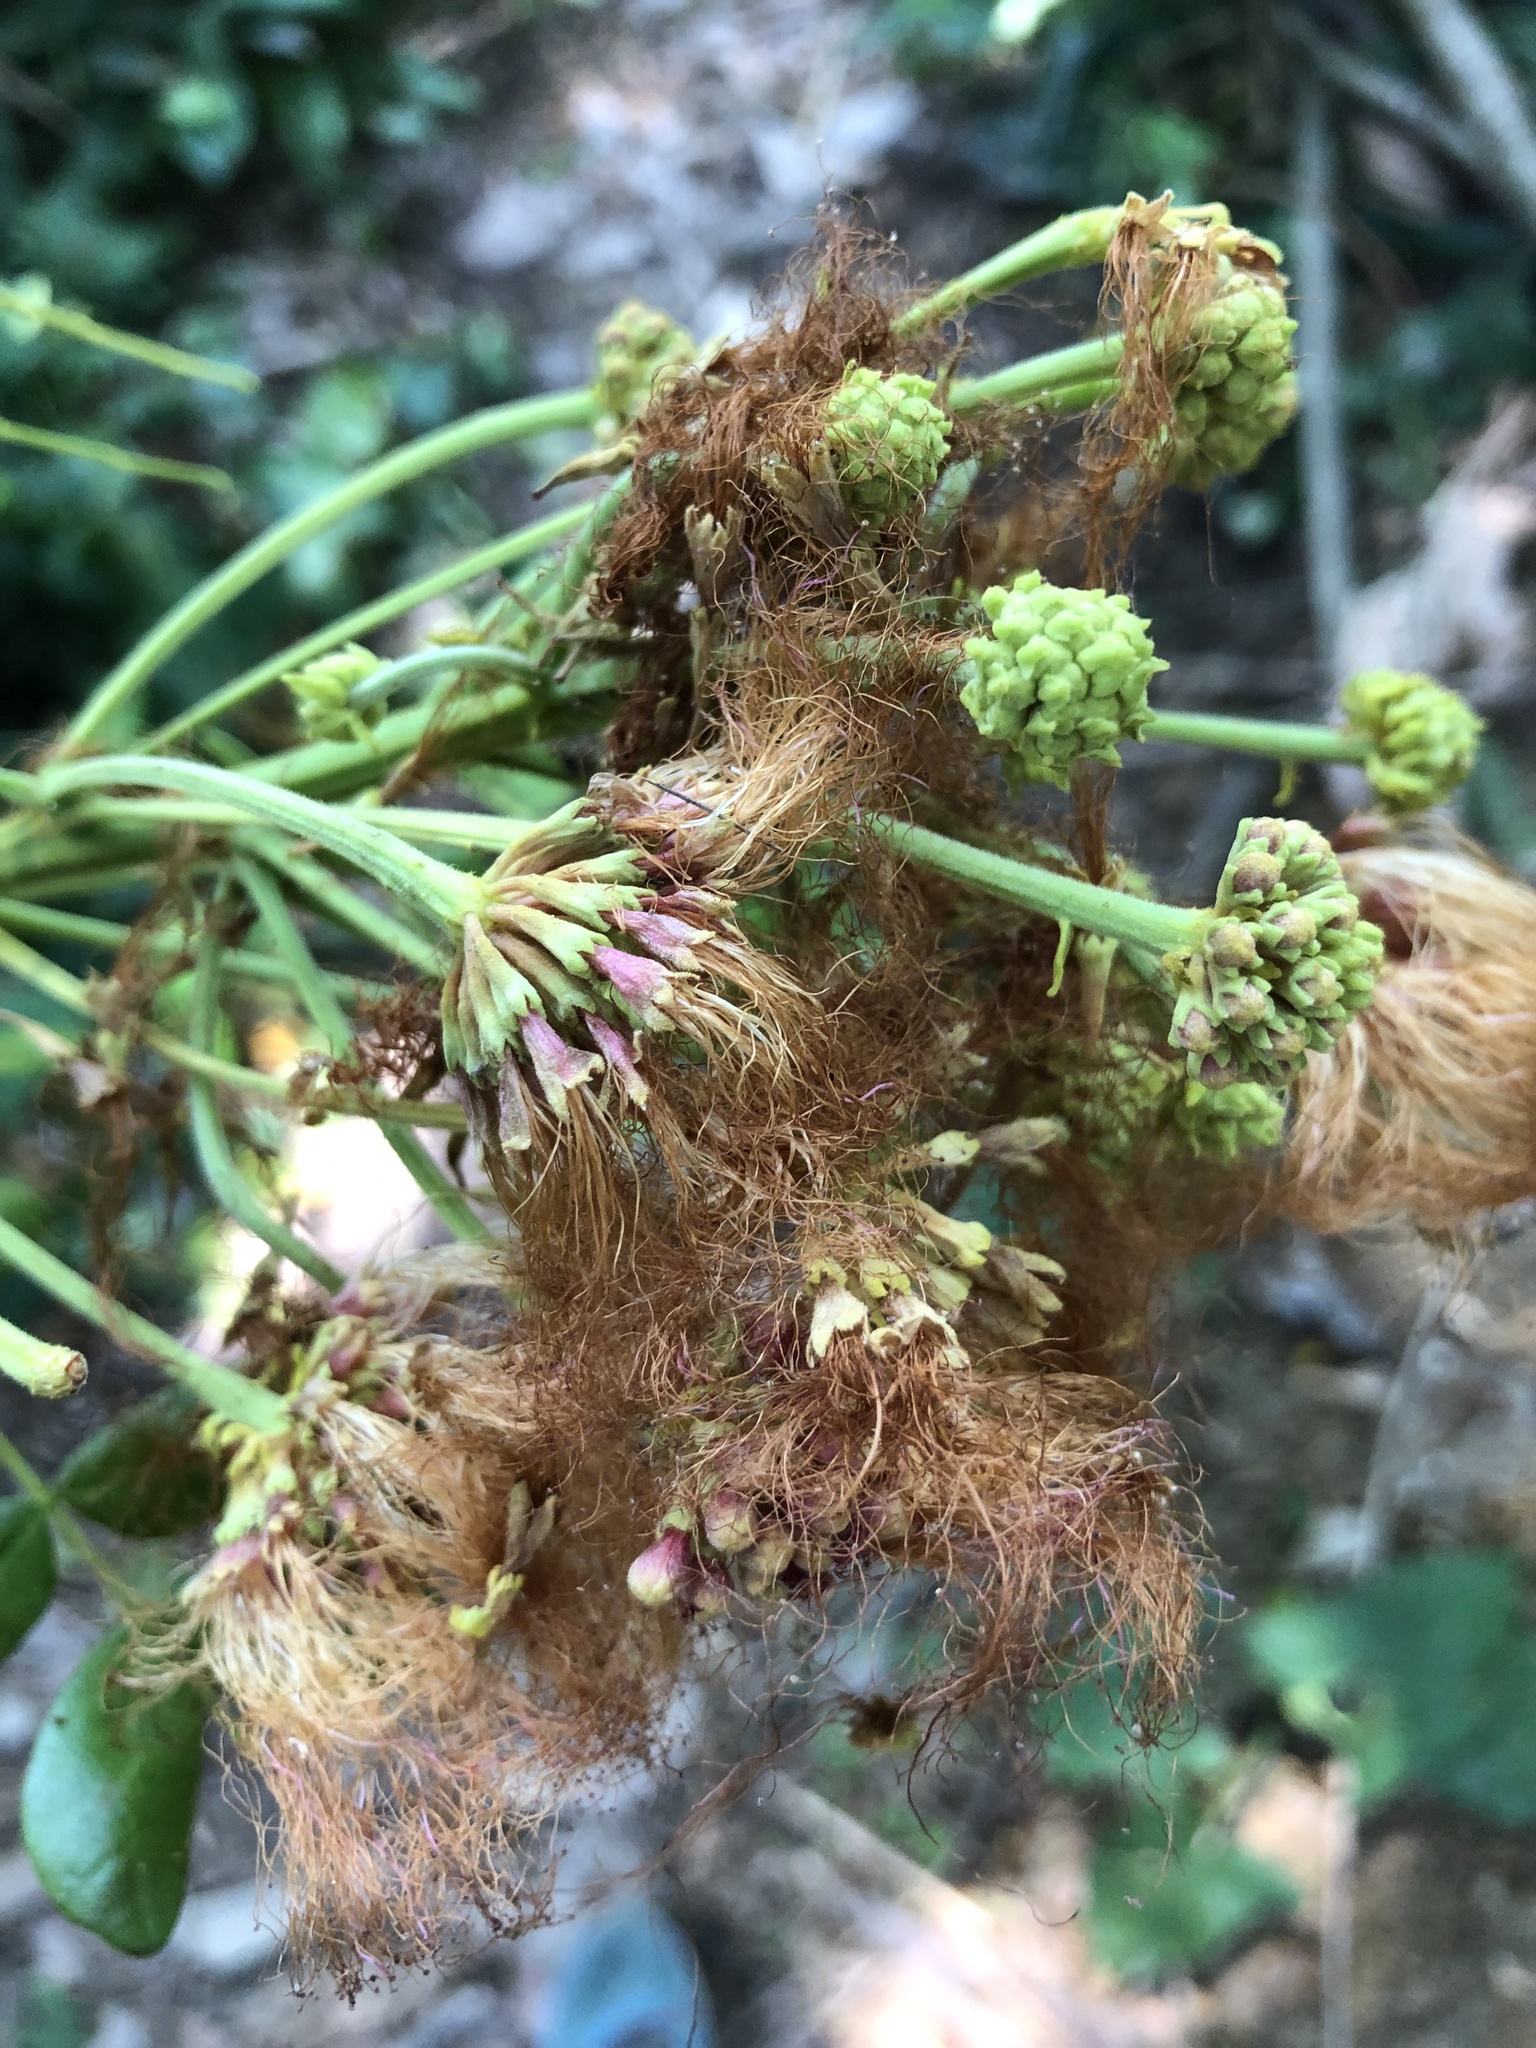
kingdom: Plantae
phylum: Tracheophyta
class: Magnoliopsida
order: Fabales
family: Fabaceae
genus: Samanea
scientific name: Samanea saman
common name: Raintree
